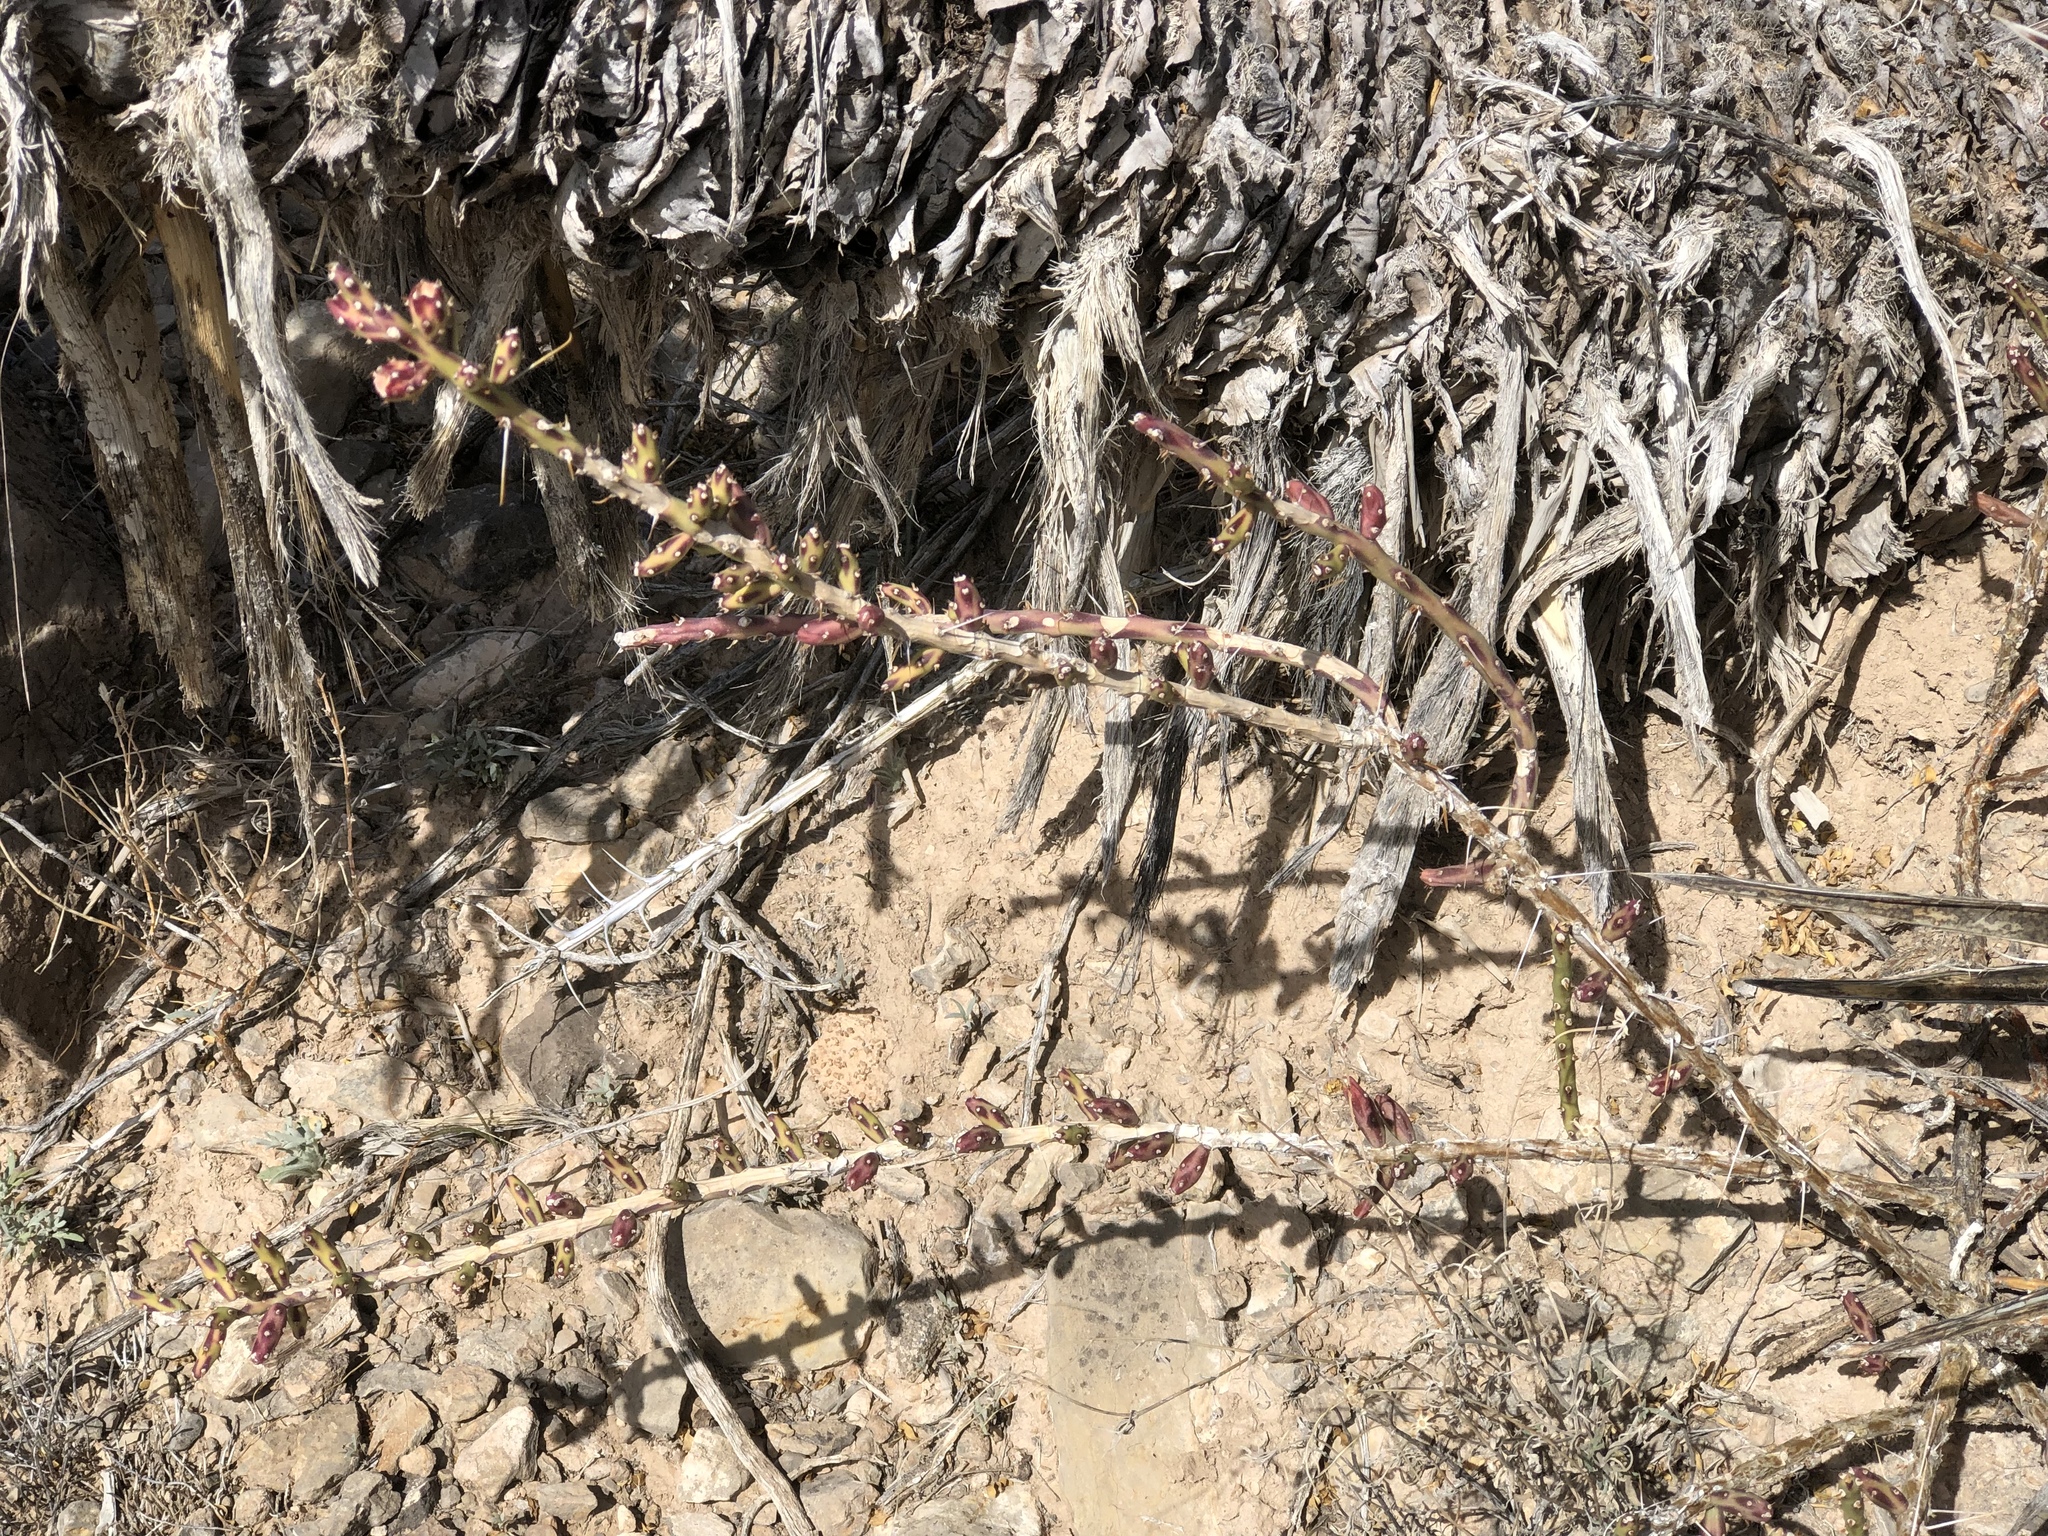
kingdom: Plantae
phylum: Tracheophyta
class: Magnoliopsida
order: Caryophyllales
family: Cactaceae
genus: Cylindropuntia
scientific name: Cylindropuntia leptocaulis
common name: Christmas cactus
